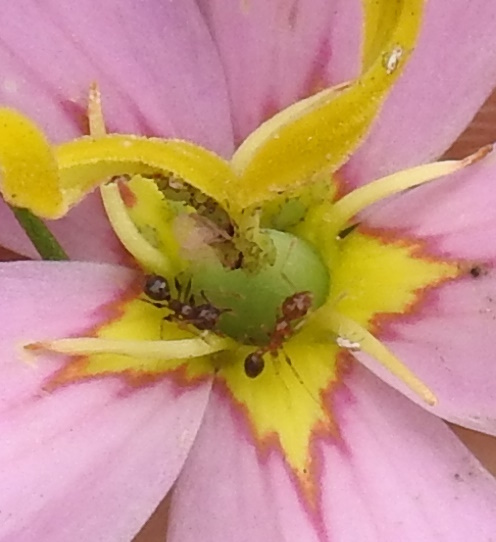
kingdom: Animalia
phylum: Arthropoda
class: Insecta
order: Hymenoptera
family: Formicidae
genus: Pheidole
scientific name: Pheidole megacephala
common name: Bigheaded ant
